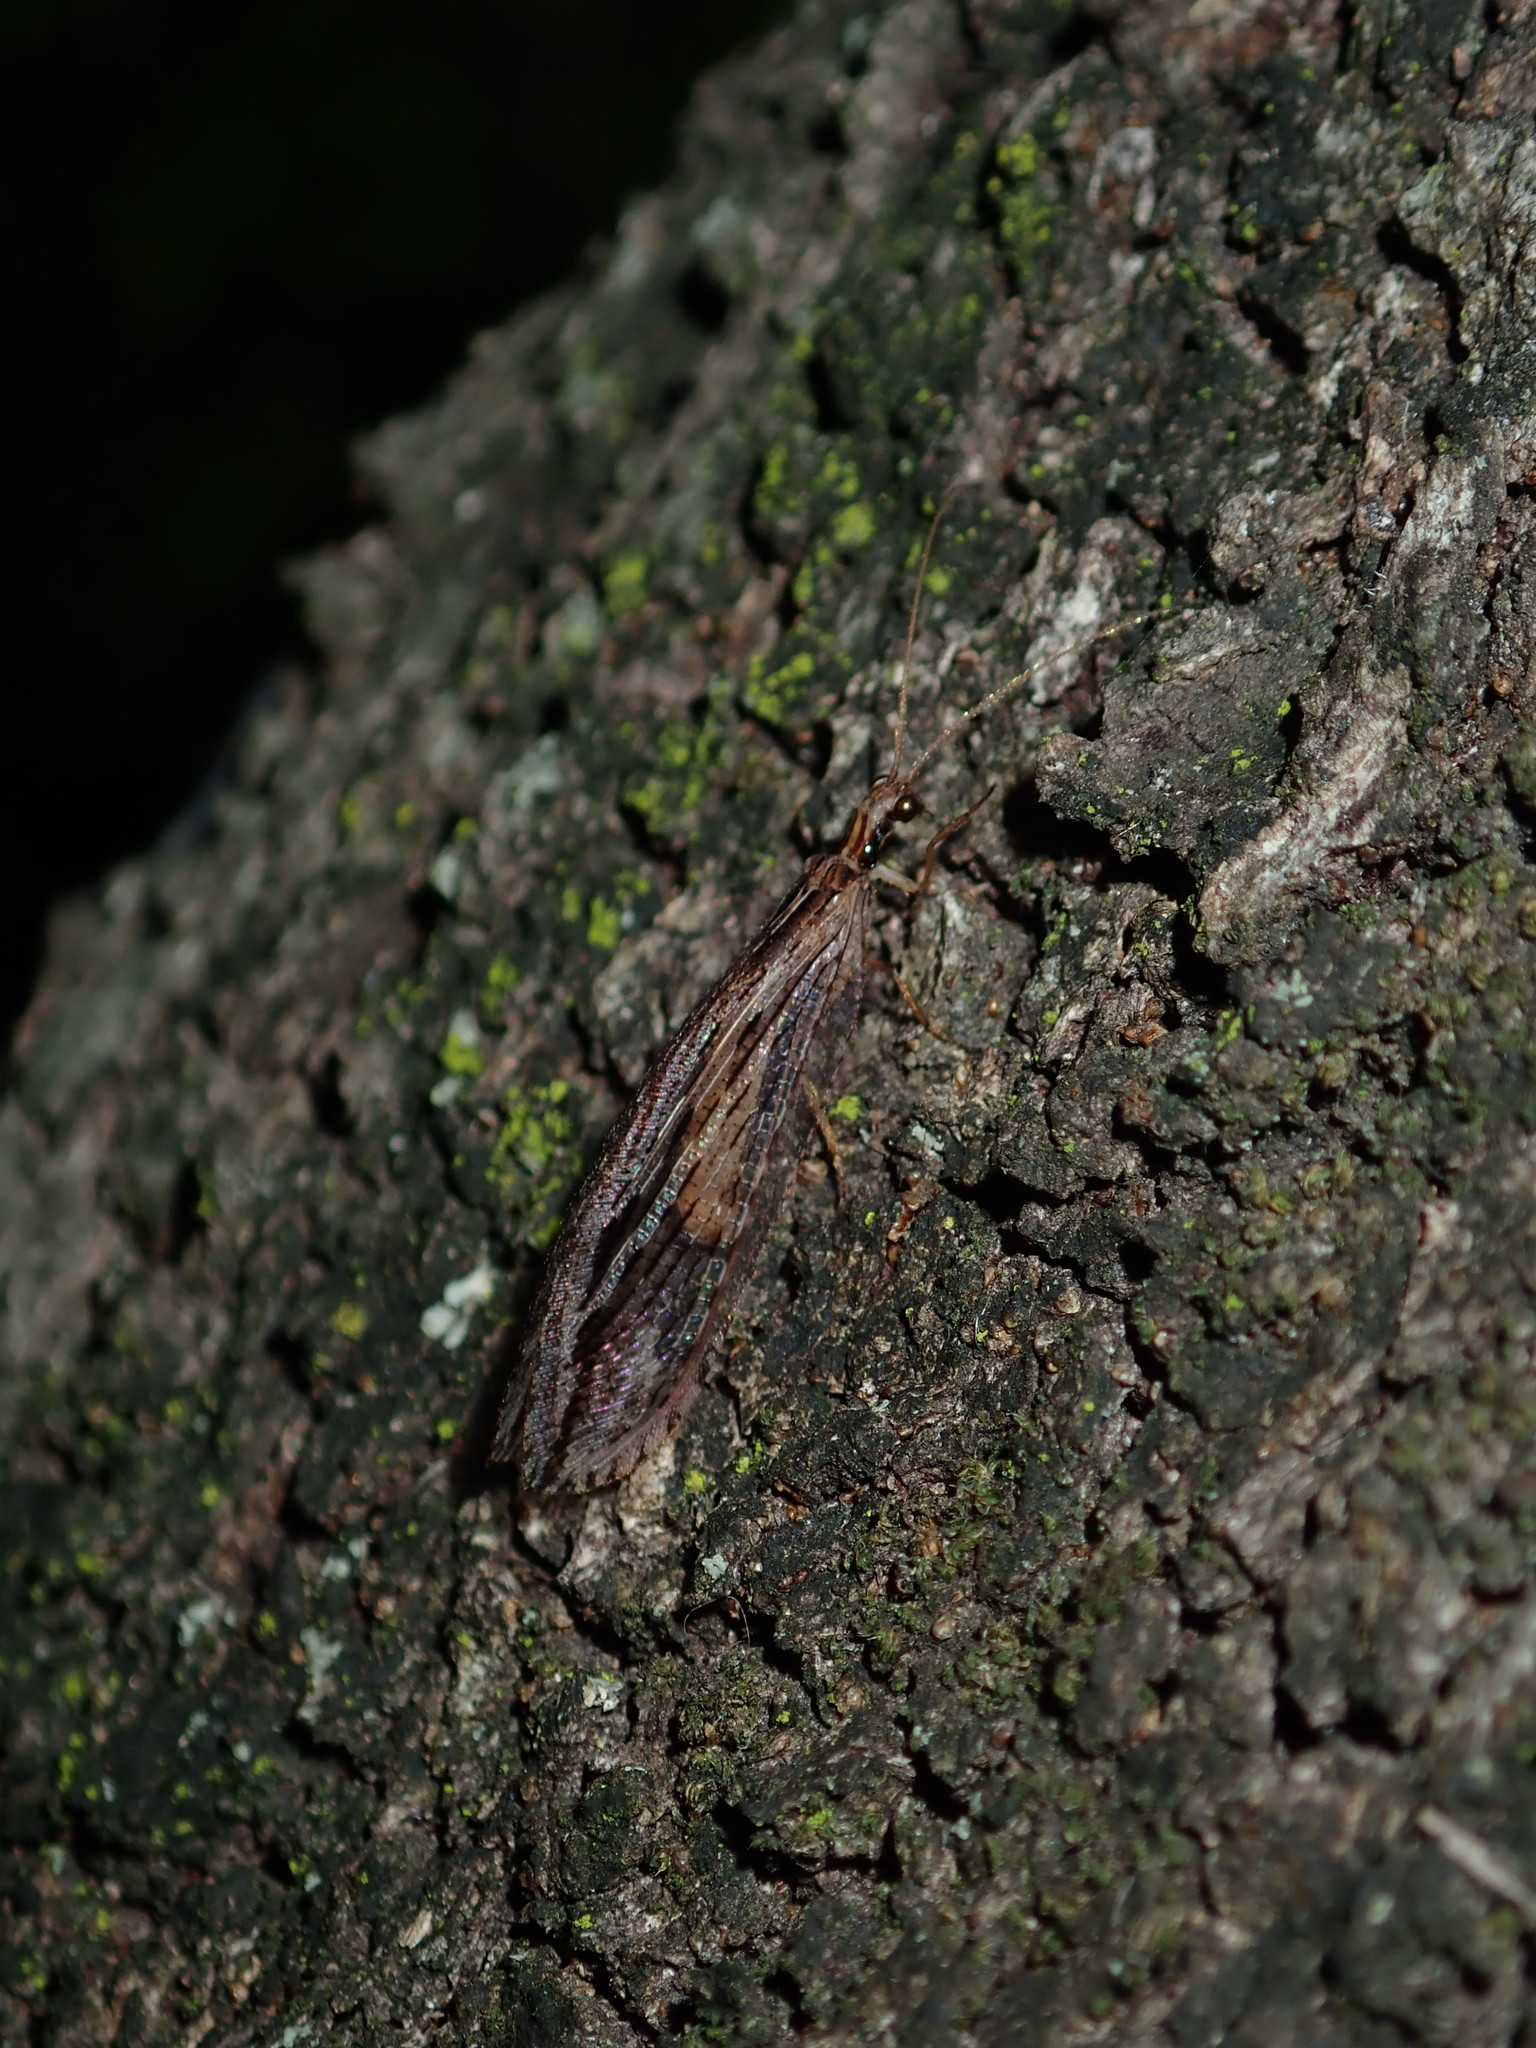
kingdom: Animalia
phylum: Arthropoda
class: Insecta
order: Neuroptera
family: Osmylidae
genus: Stenosmylus
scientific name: Stenosmylus stenopterus
